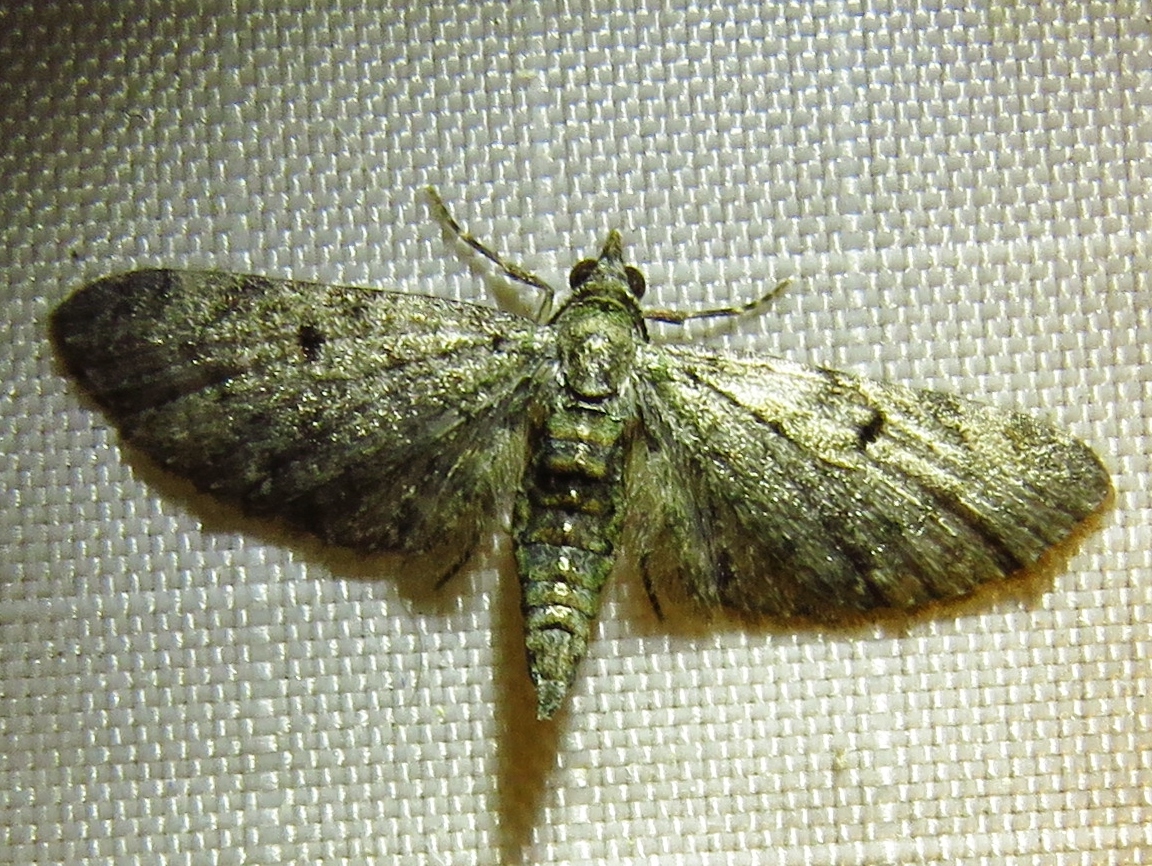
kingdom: Animalia
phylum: Arthropoda
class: Insecta
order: Lepidoptera
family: Geometridae
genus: Eupithecia
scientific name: Eupithecia miserulata
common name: Common eupithecia
